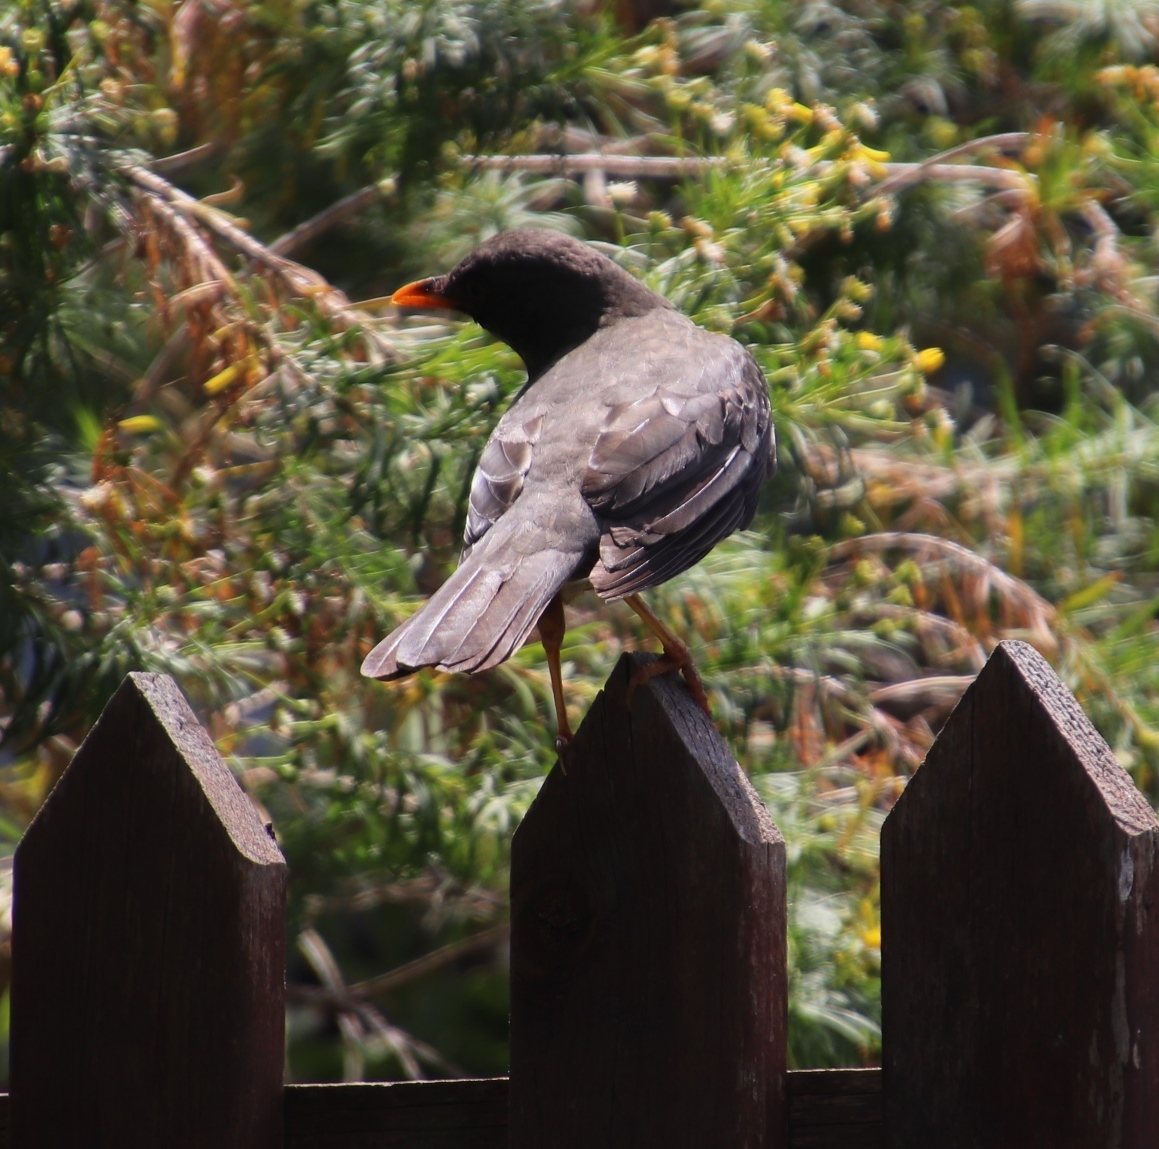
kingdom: Animalia
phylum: Chordata
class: Aves
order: Passeriformes
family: Turdidae
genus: Turdus
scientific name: Turdus olivaceus
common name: Olive thrush
